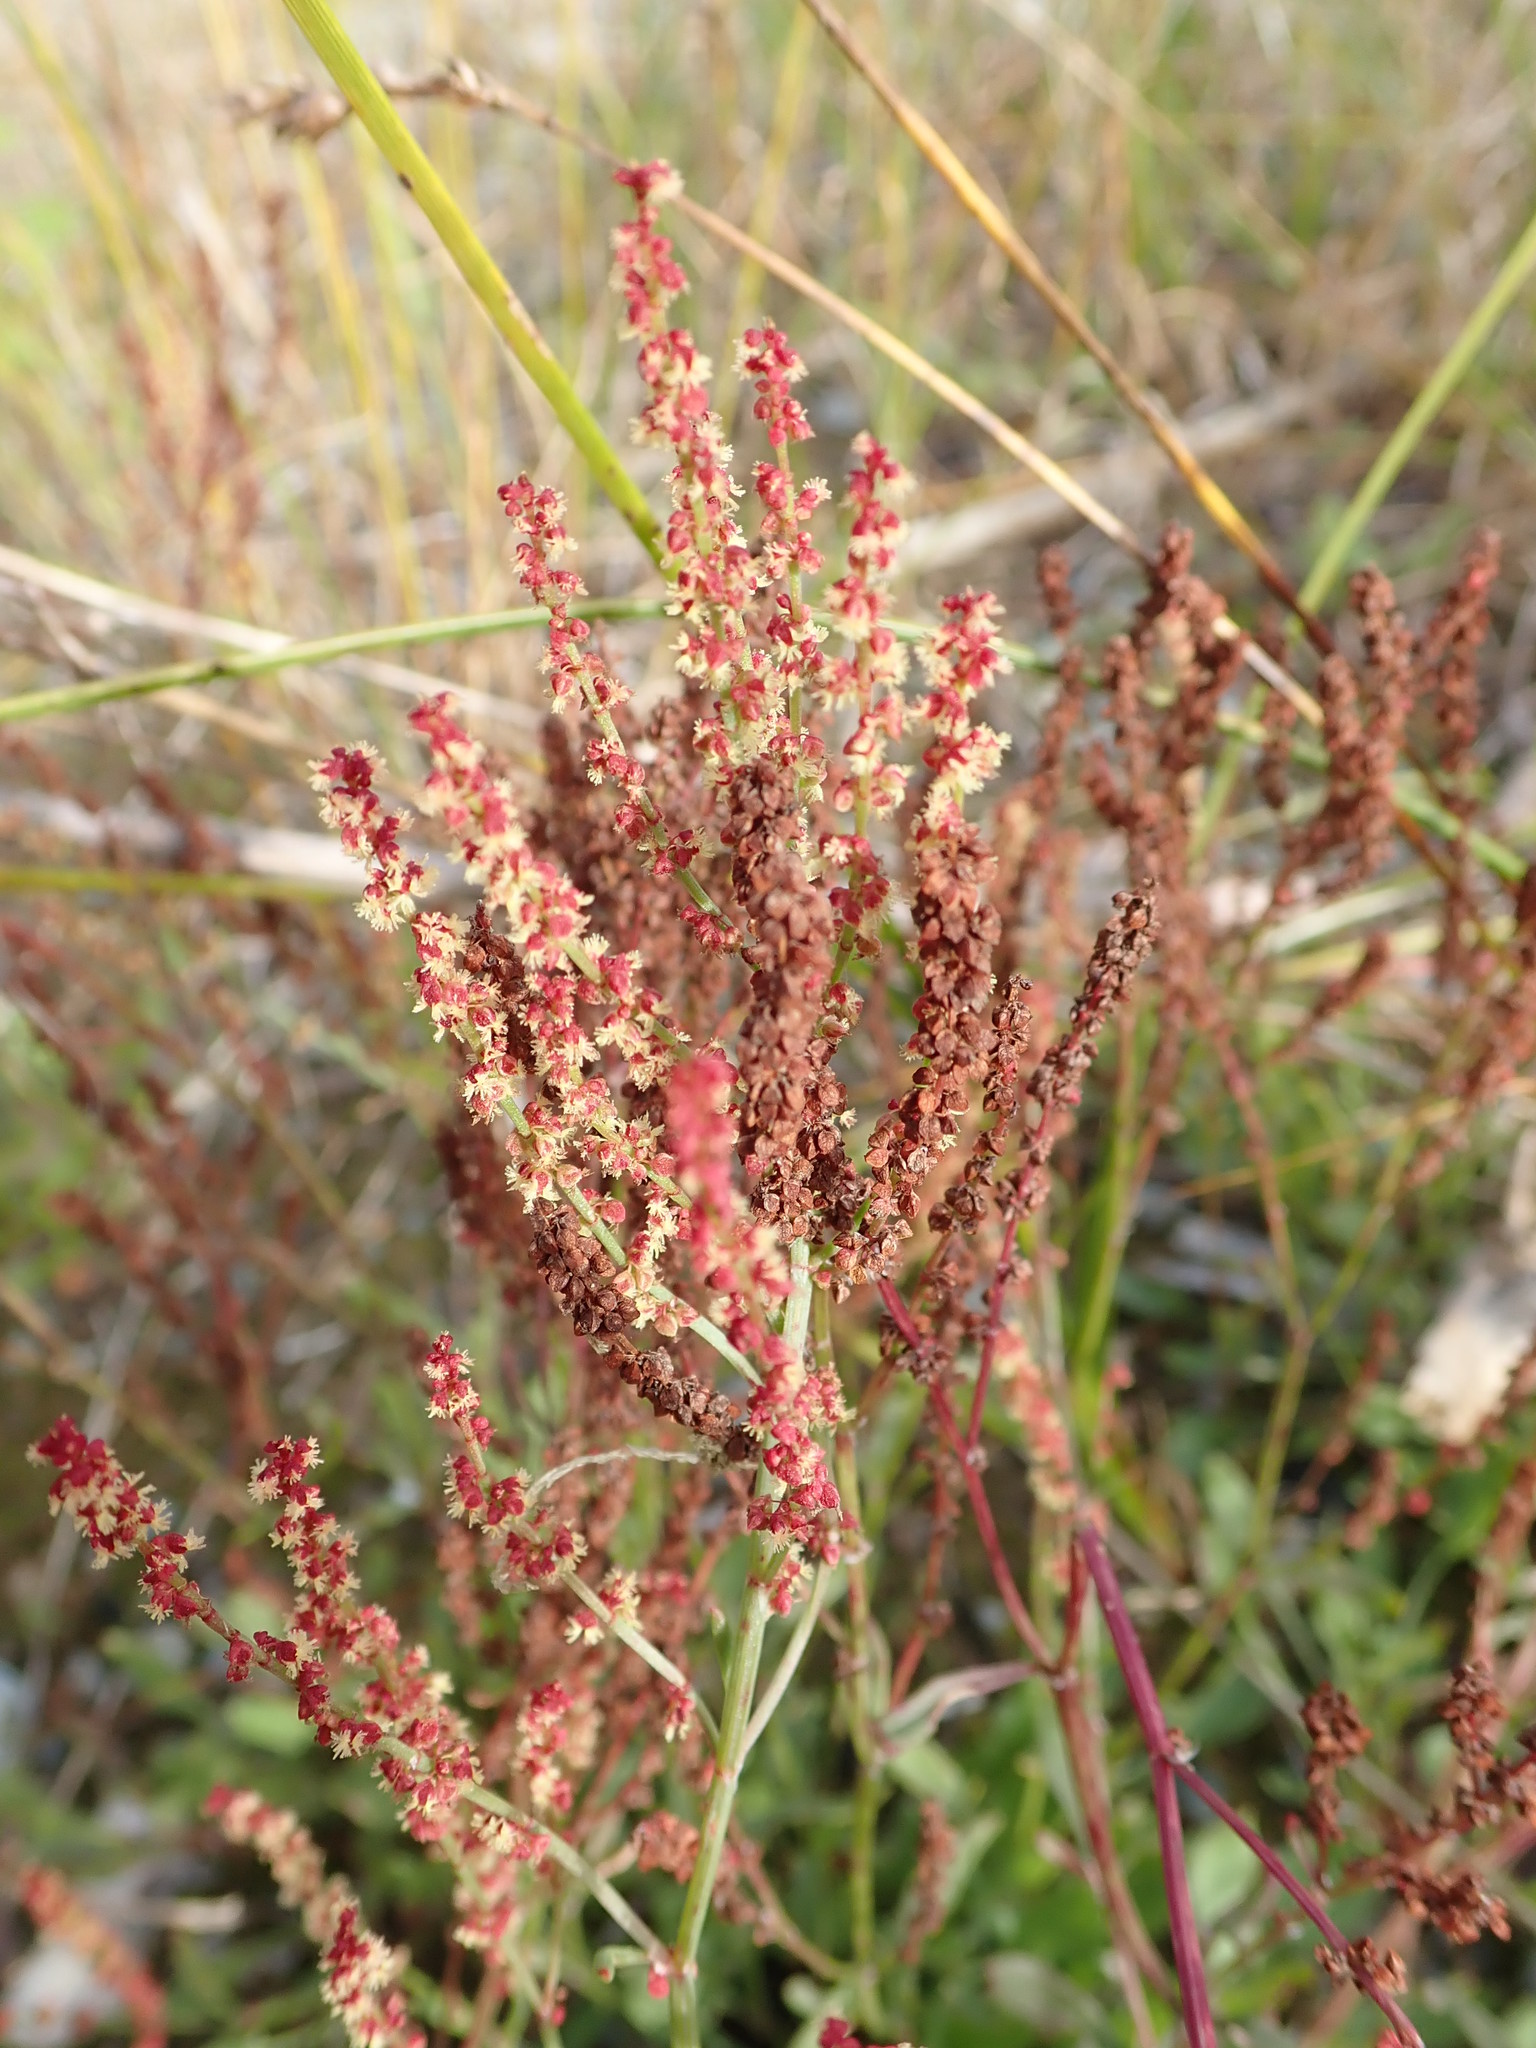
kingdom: Plantae
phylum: Tracheophyta
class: Magnoliopsida
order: Caryophyllales
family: Polygonaceae
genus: Rumex
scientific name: Rumex acetosella
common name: Common sheep sorrel
